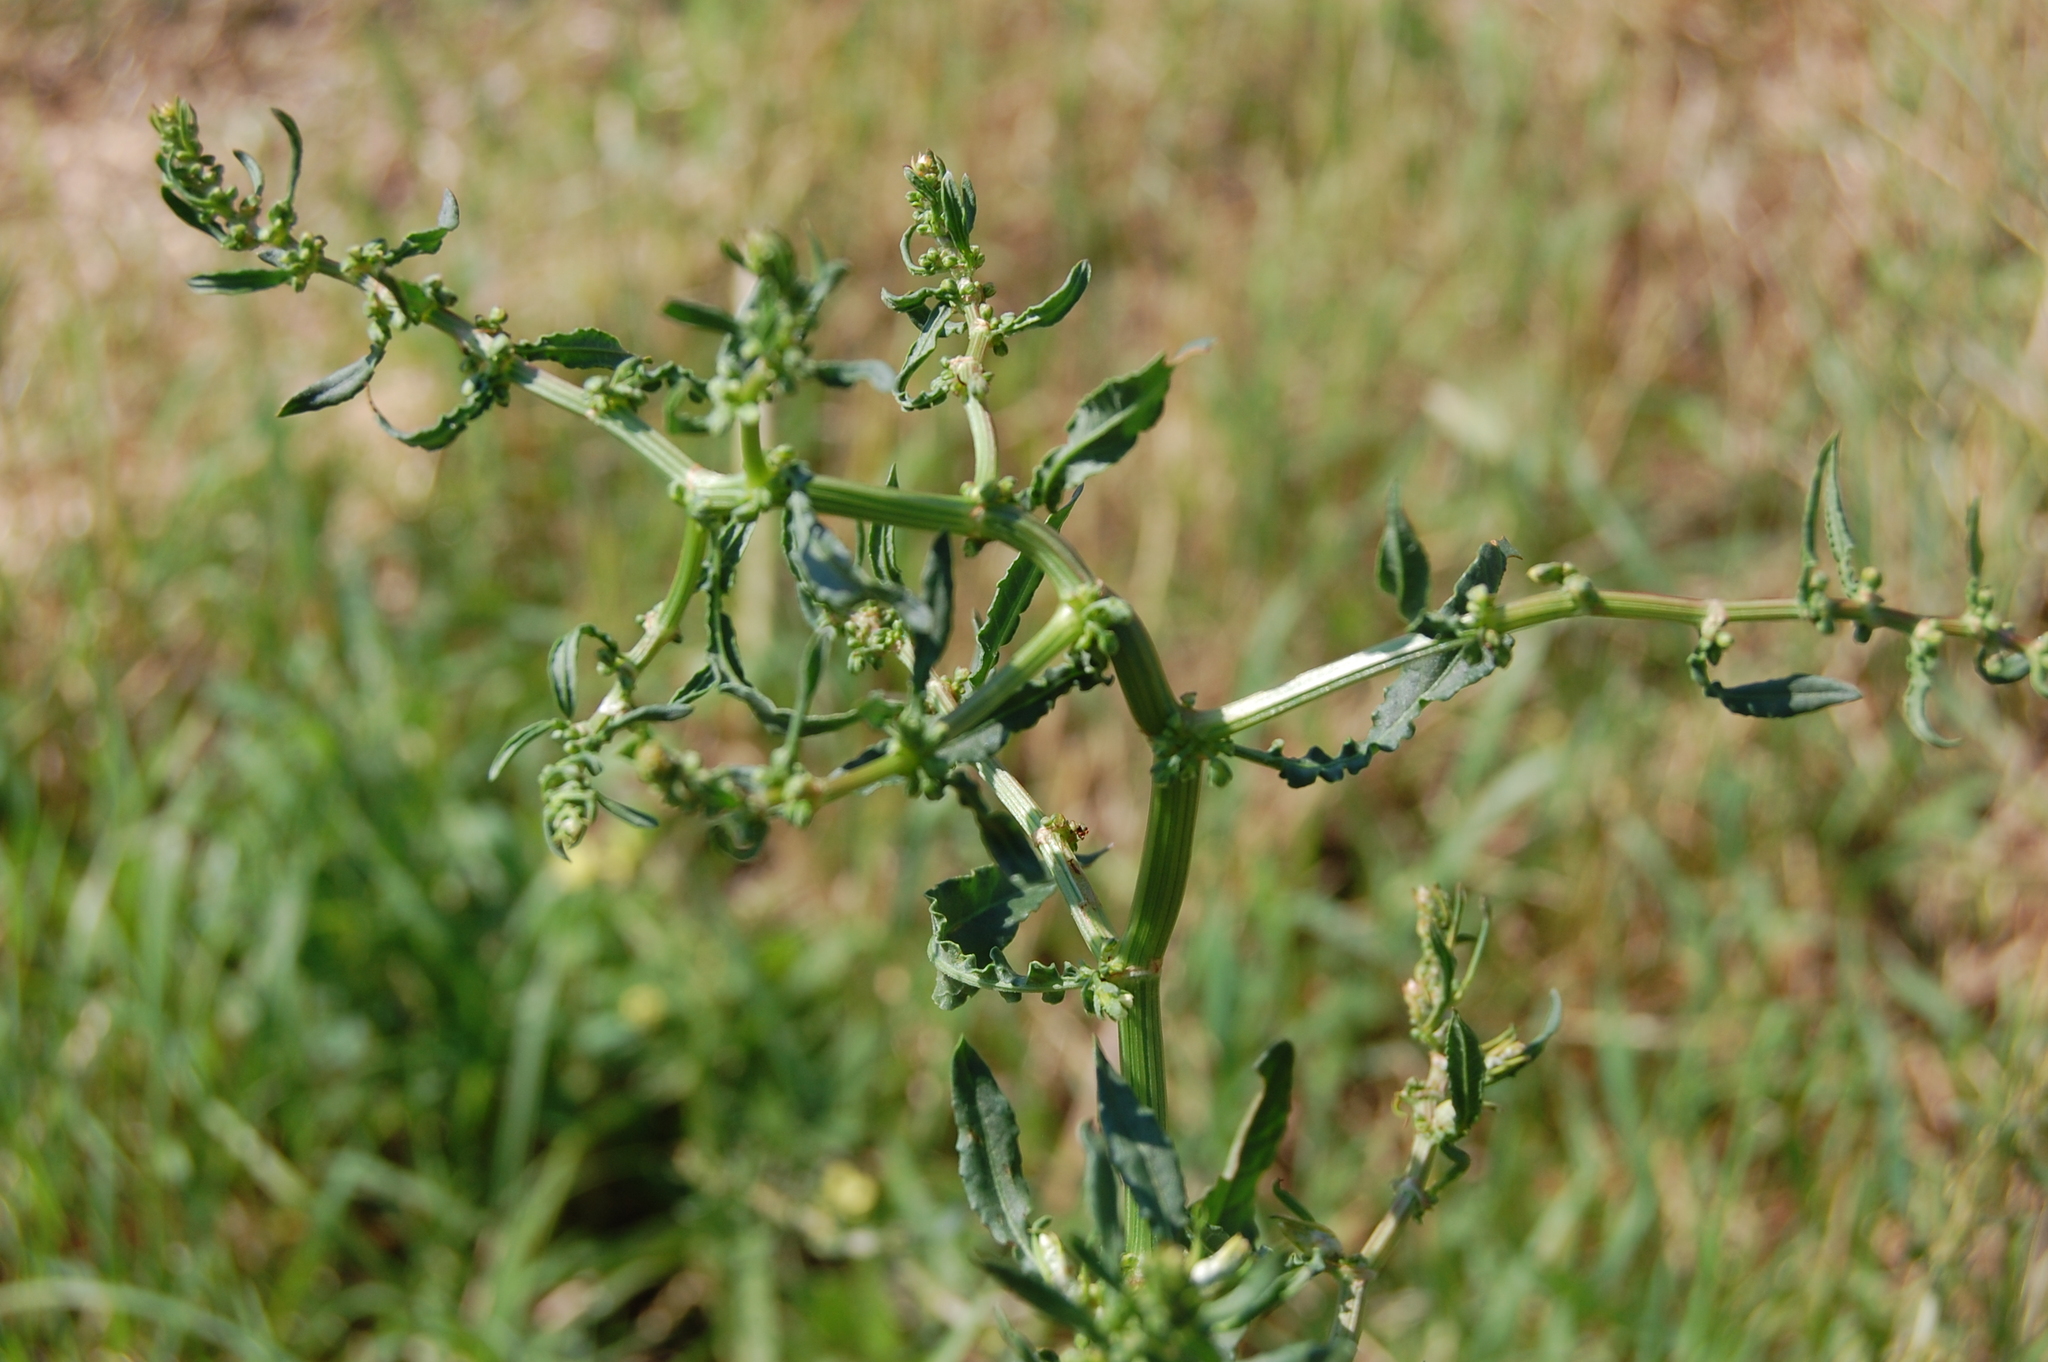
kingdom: Plantae
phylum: Tracheophyta
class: Magnoliopsida
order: Caryophyllales
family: Polygonaceae
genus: Rumex
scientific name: Rumex pulcher
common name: Fiddle dock
